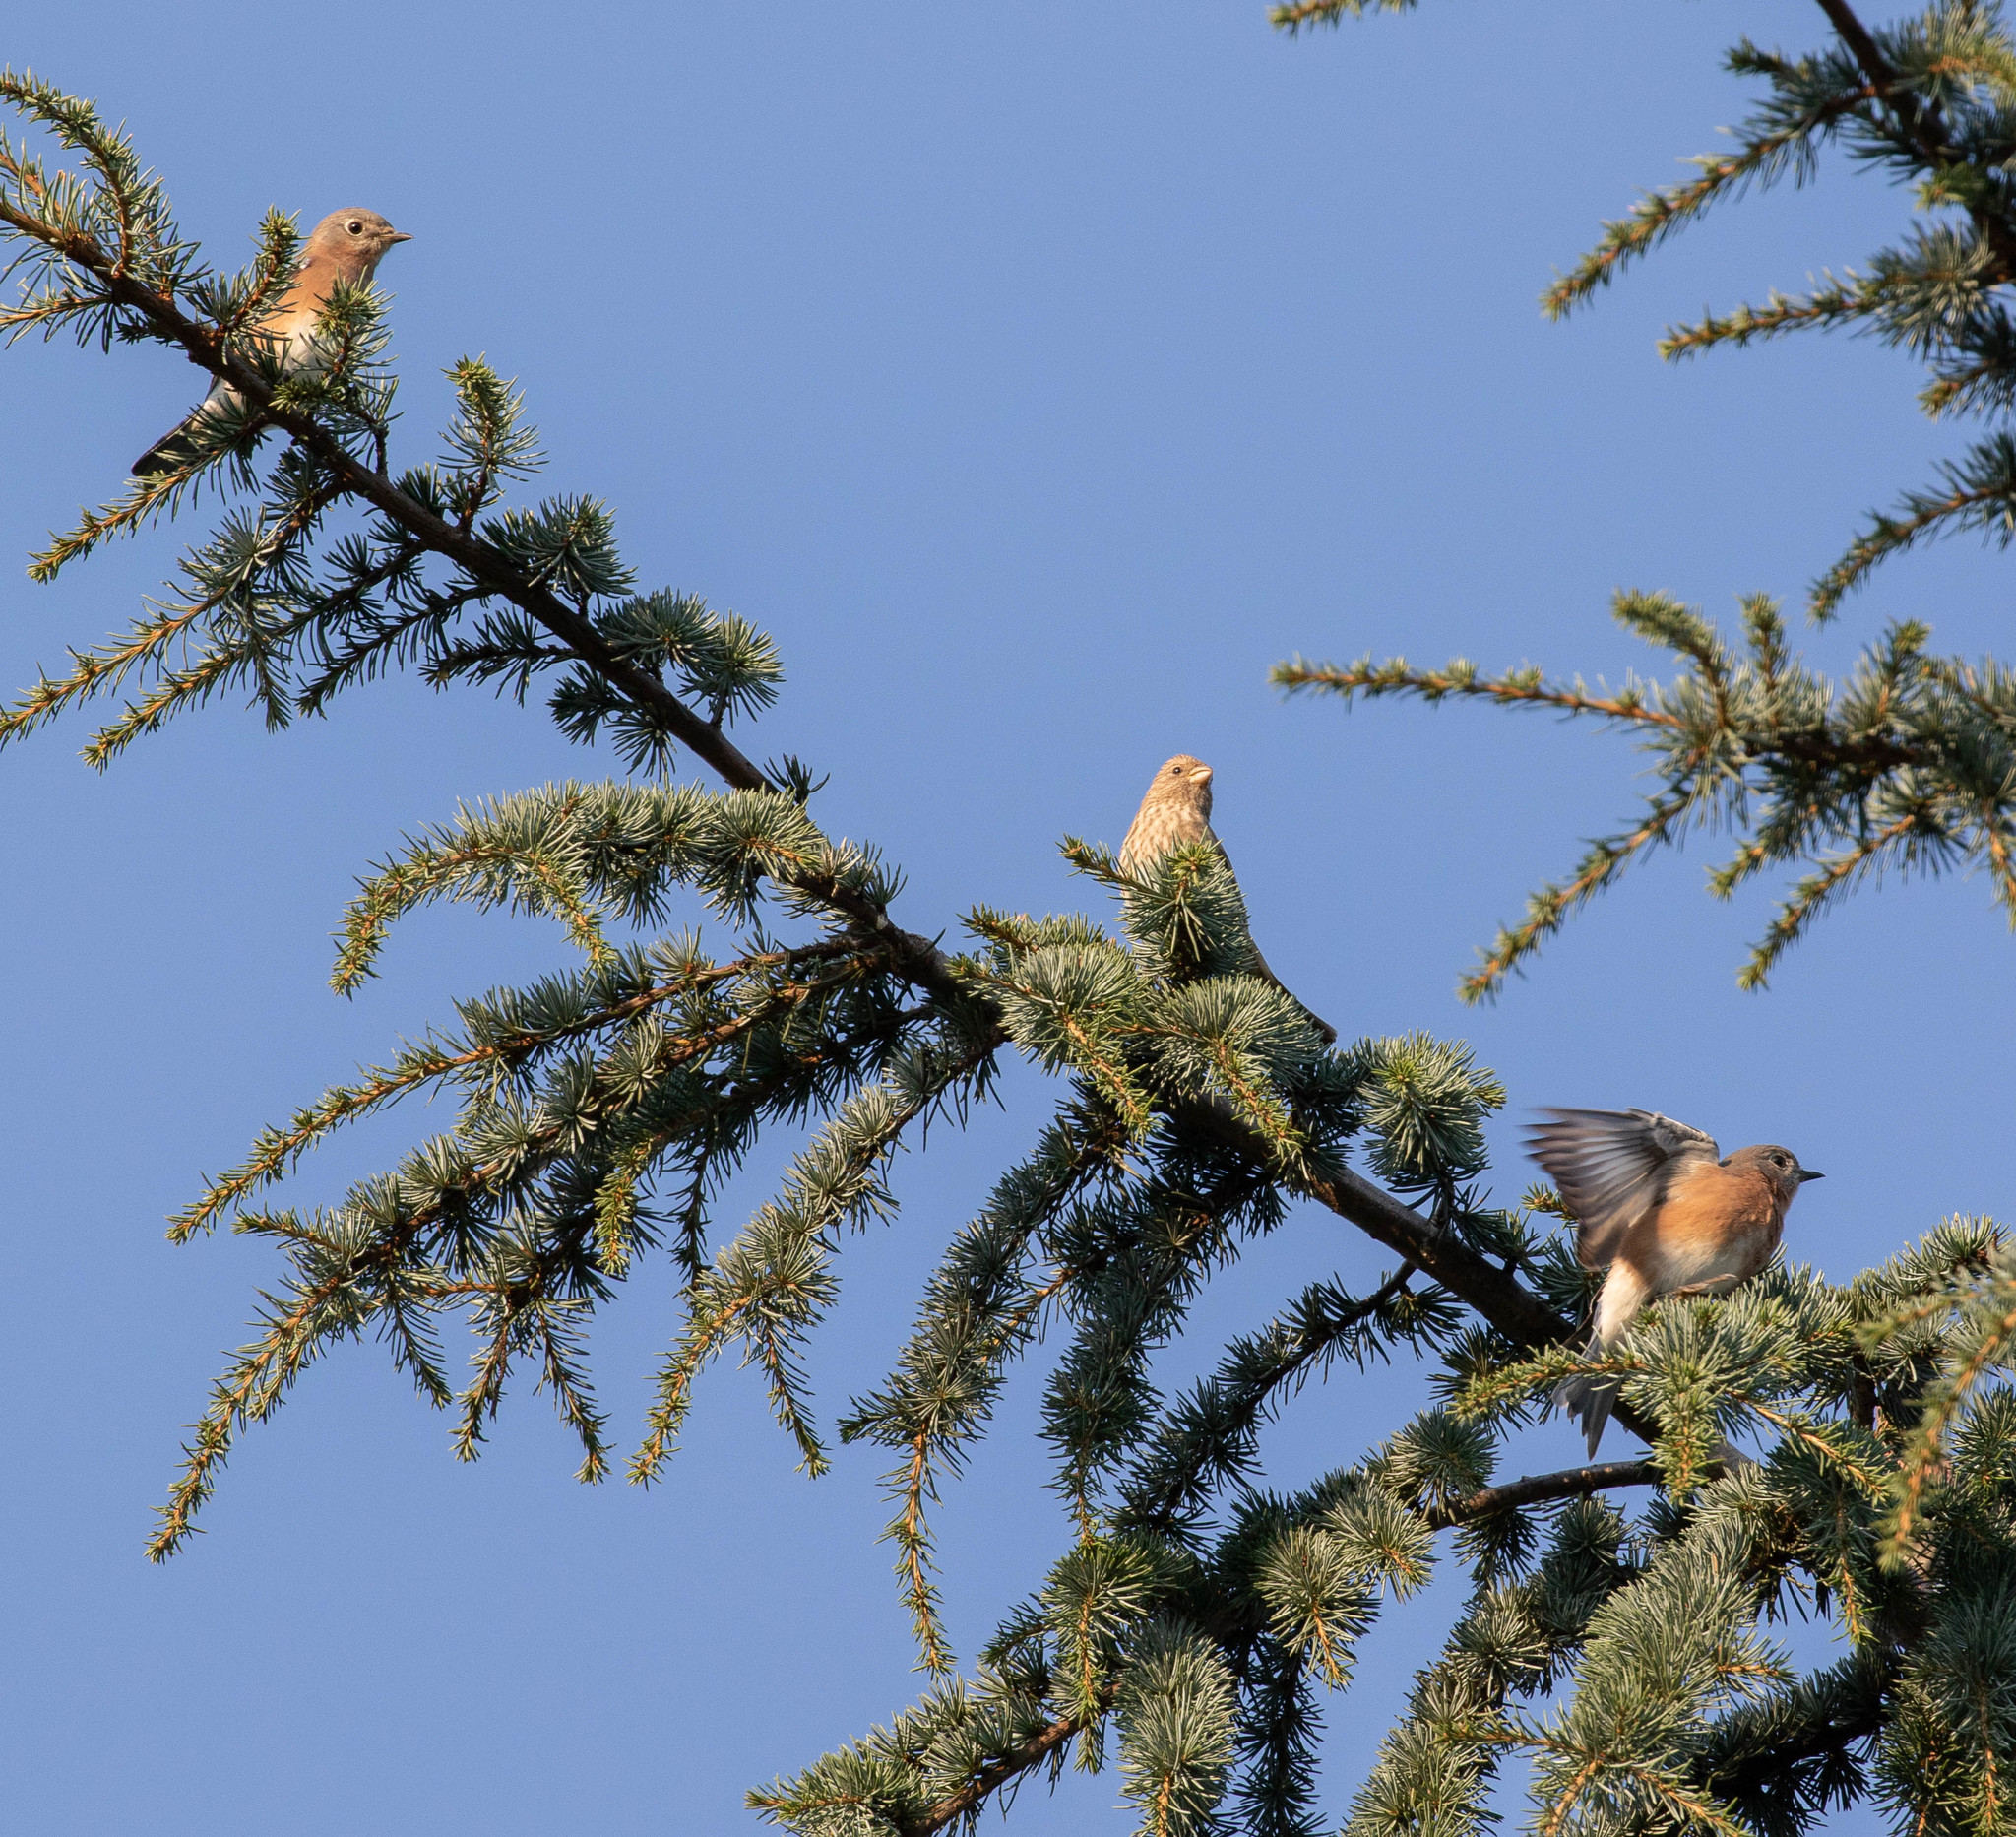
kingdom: Animalia
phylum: Chordata
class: Aves
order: Passeriformes
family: Fringillidae
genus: Haemorhous
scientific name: Haemorhous mexicanus
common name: House finch
